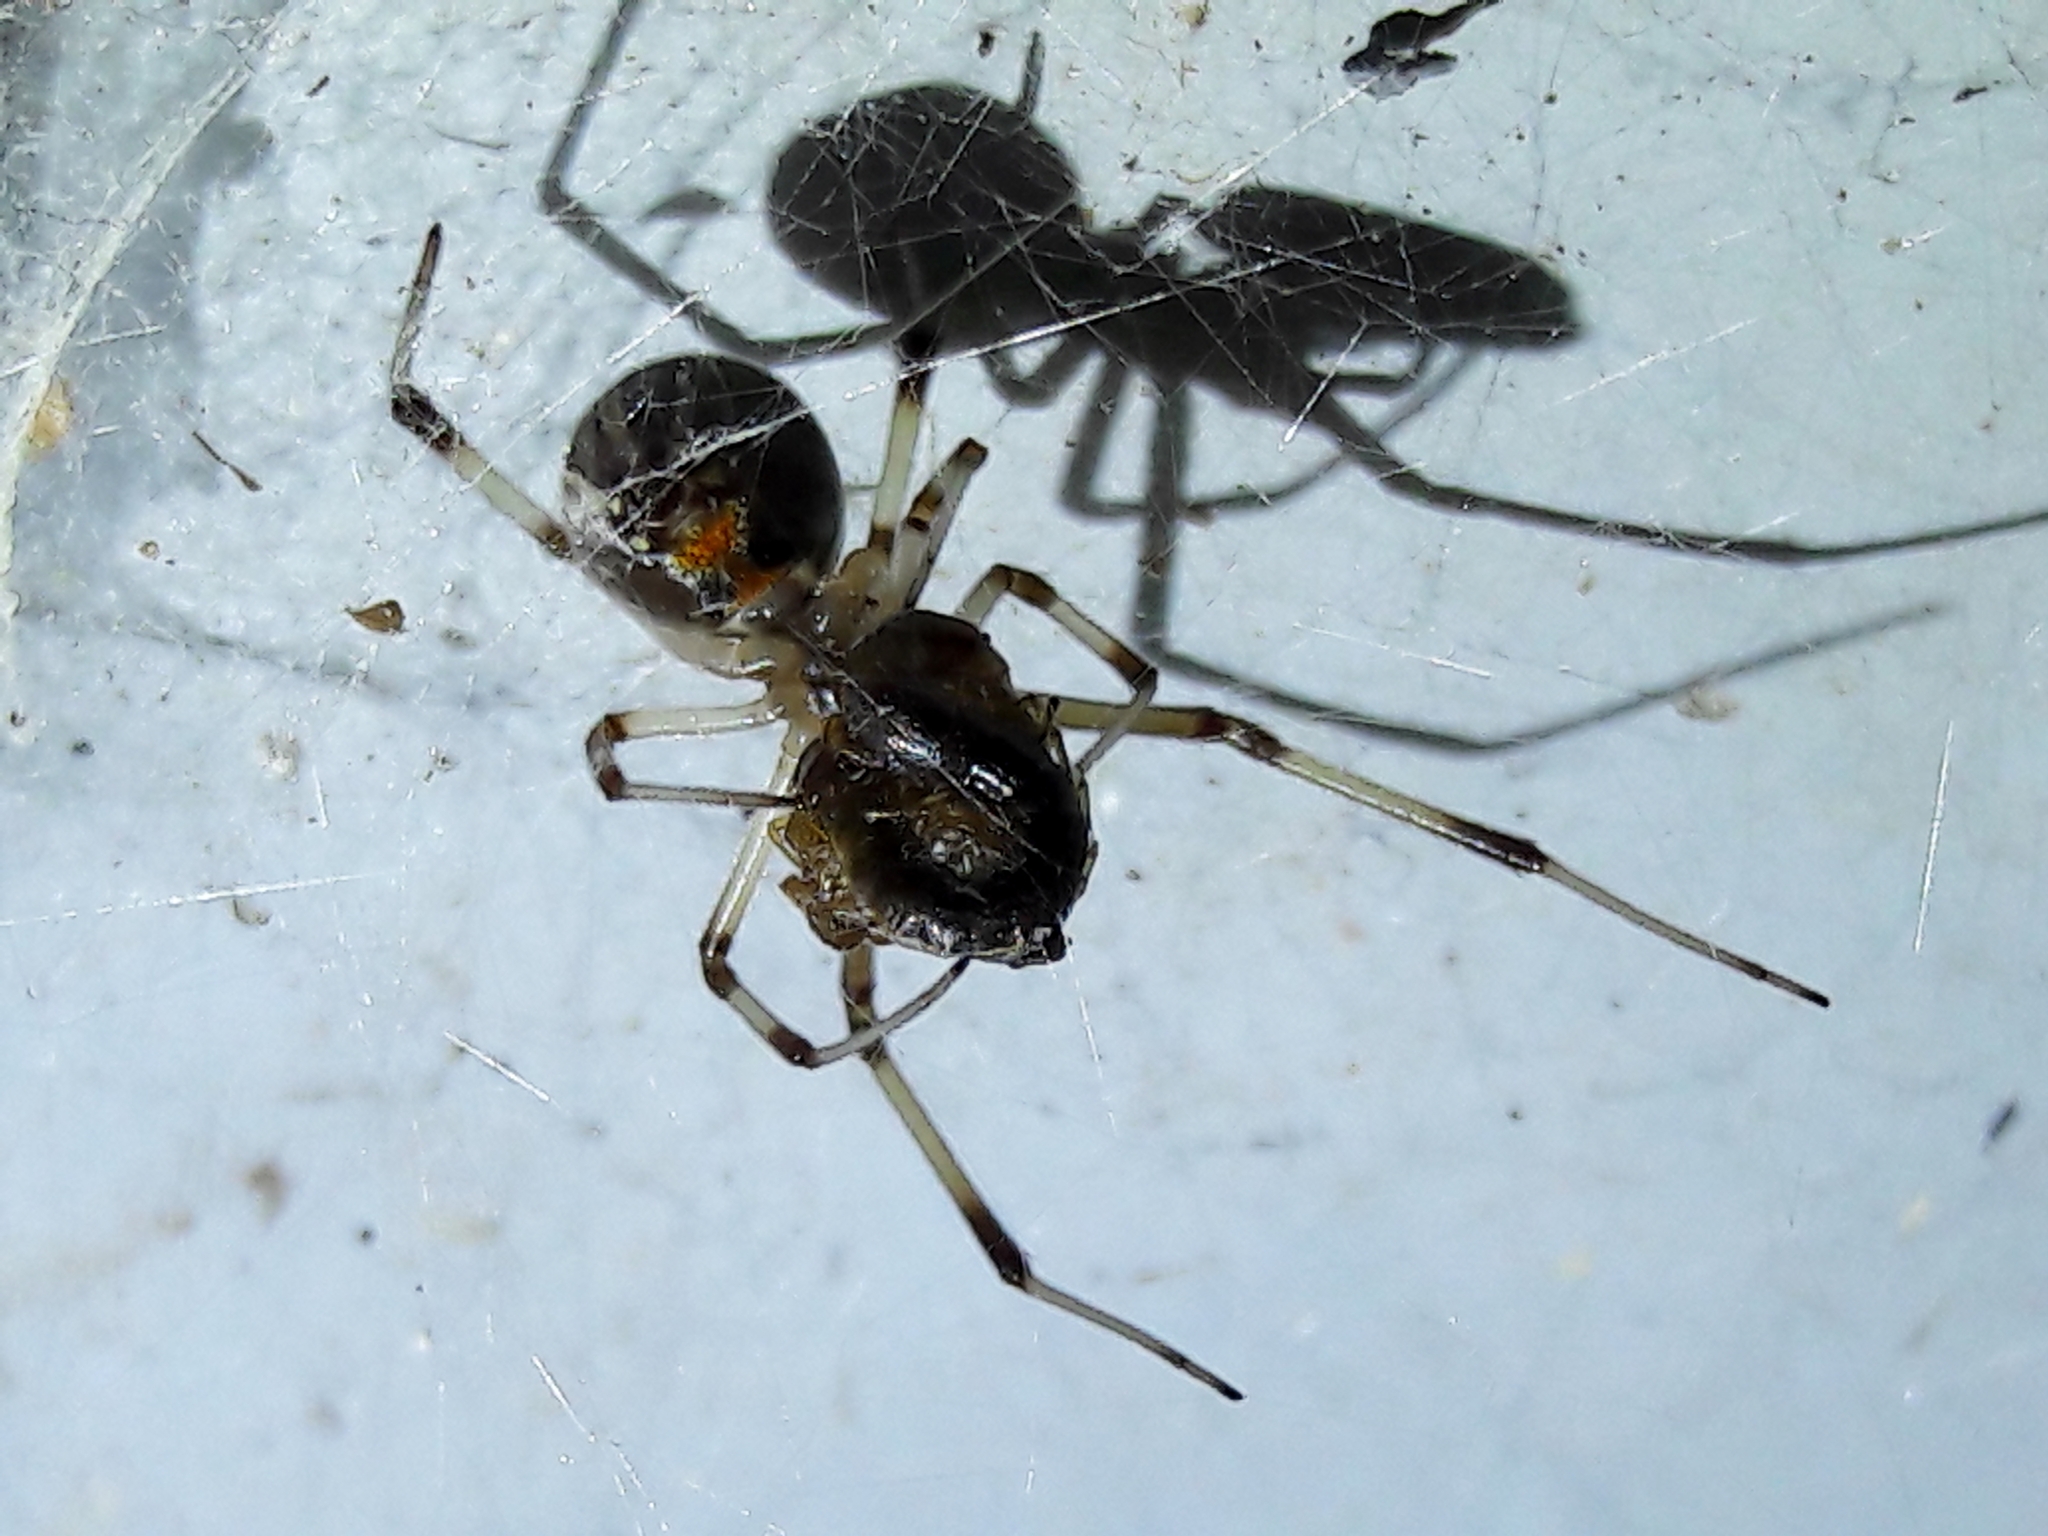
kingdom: Animalia
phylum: Arthropoda
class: Arachnida
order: Araneae
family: Theridiidae
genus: Latrodectus
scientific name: Latrodectus geometricus
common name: Brown widow spider
